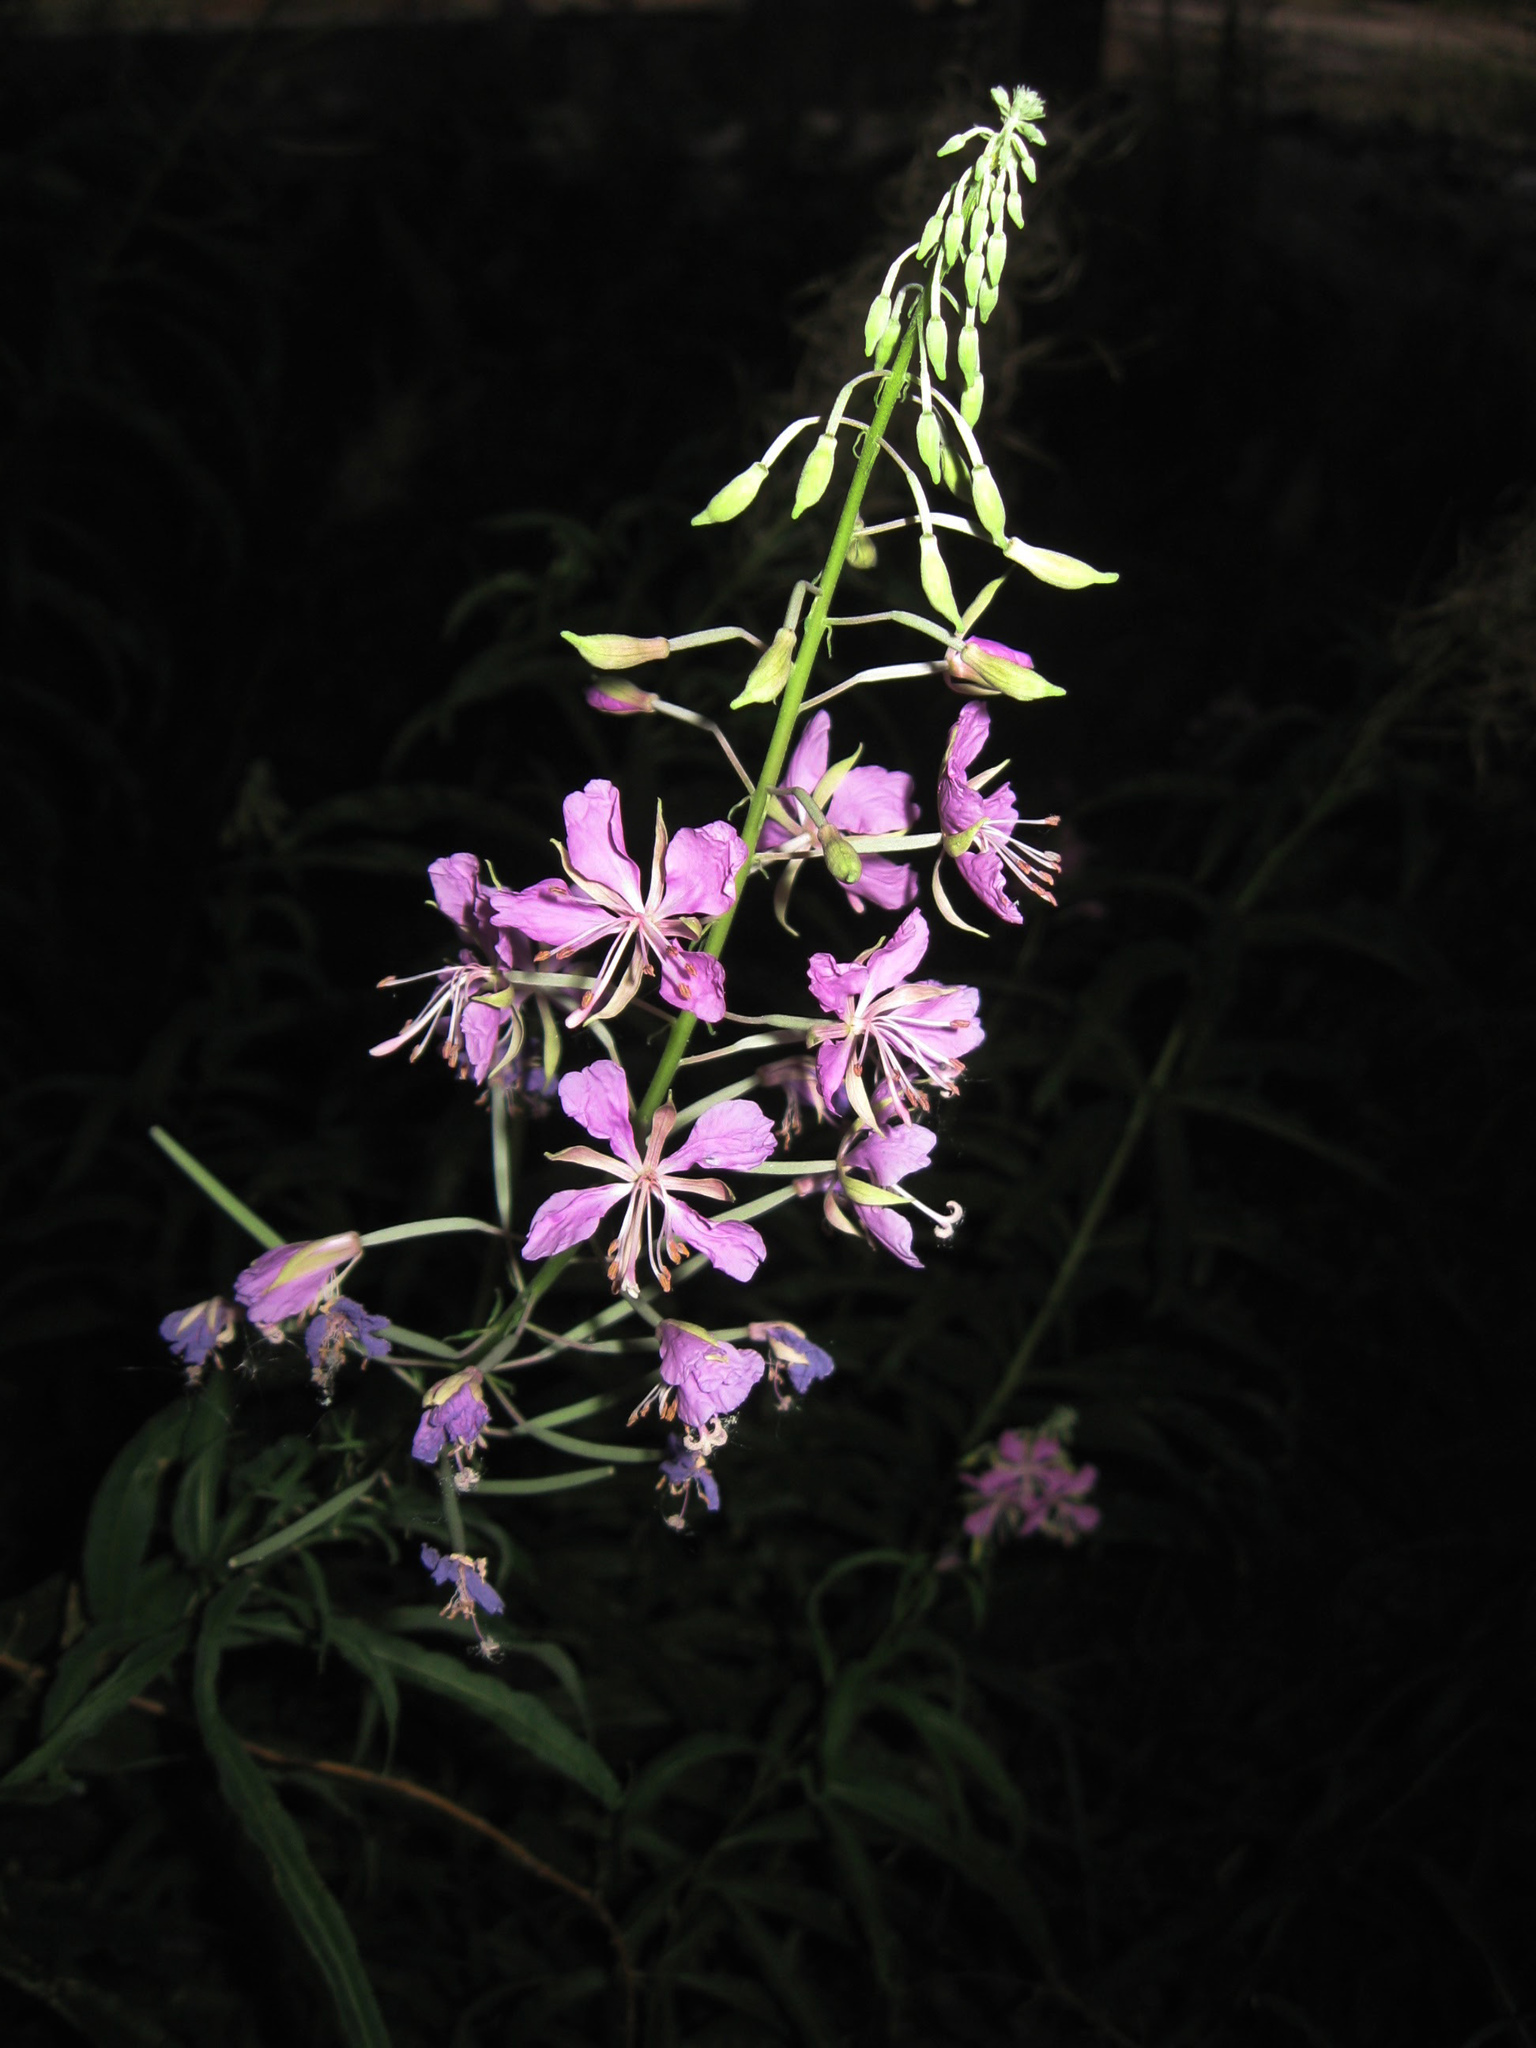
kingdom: Plantae
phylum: Tracheophyta
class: Magnoliopsida
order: Myrtales
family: Onagraceae
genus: Chamaenerion
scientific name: Chamaenerion angustifolium
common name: Fireweed
